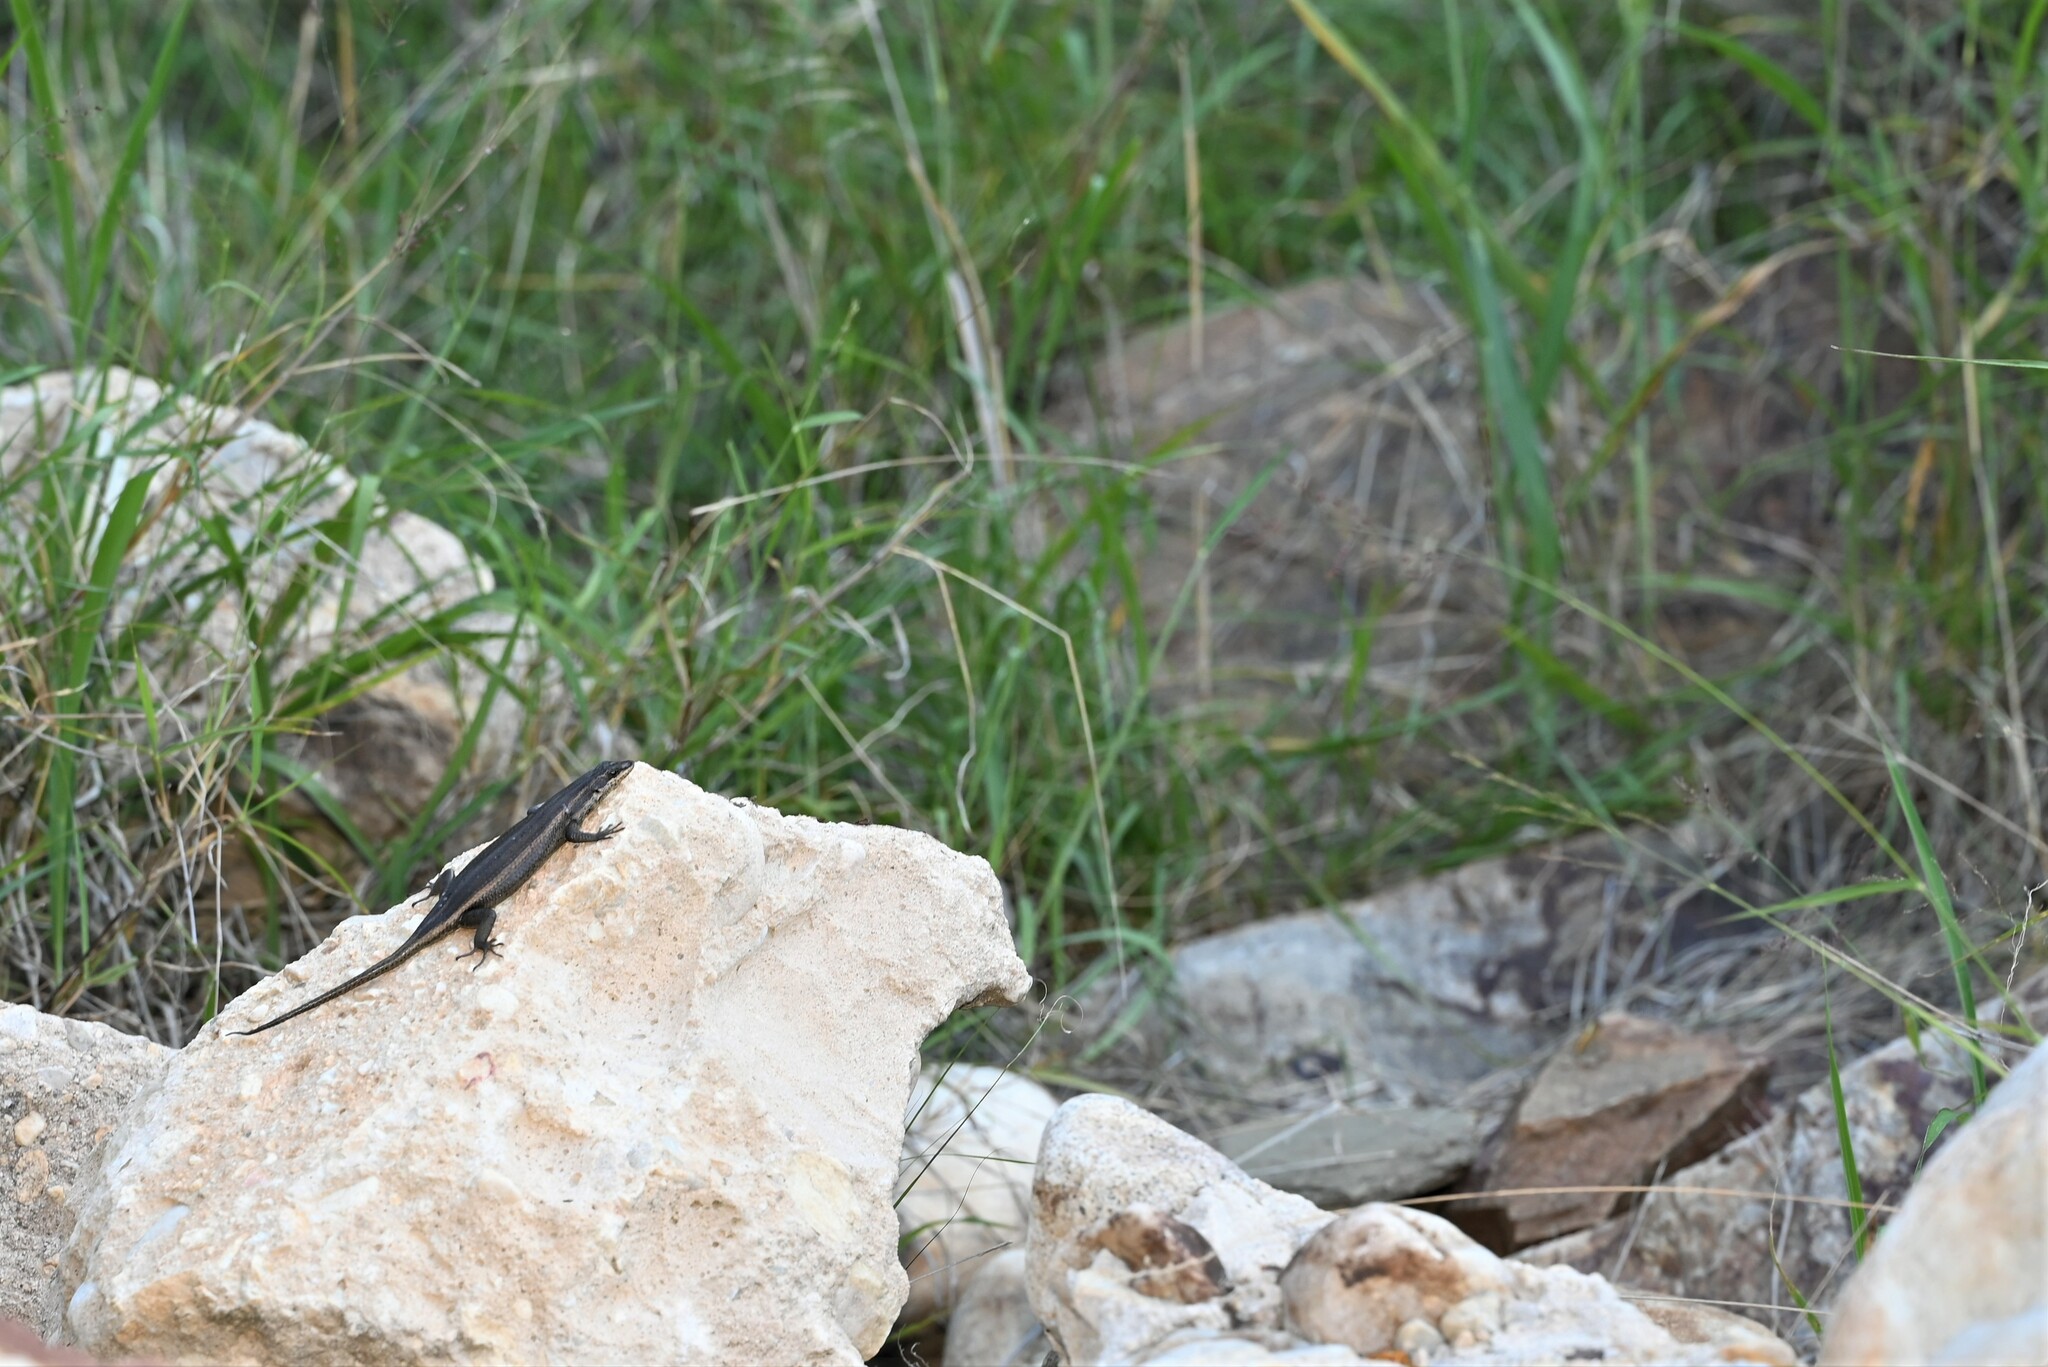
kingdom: Animalia
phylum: Chordata
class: Squamata
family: Scincidae
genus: Trachylepis
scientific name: Trachylepis sulcata
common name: Western rock skink
